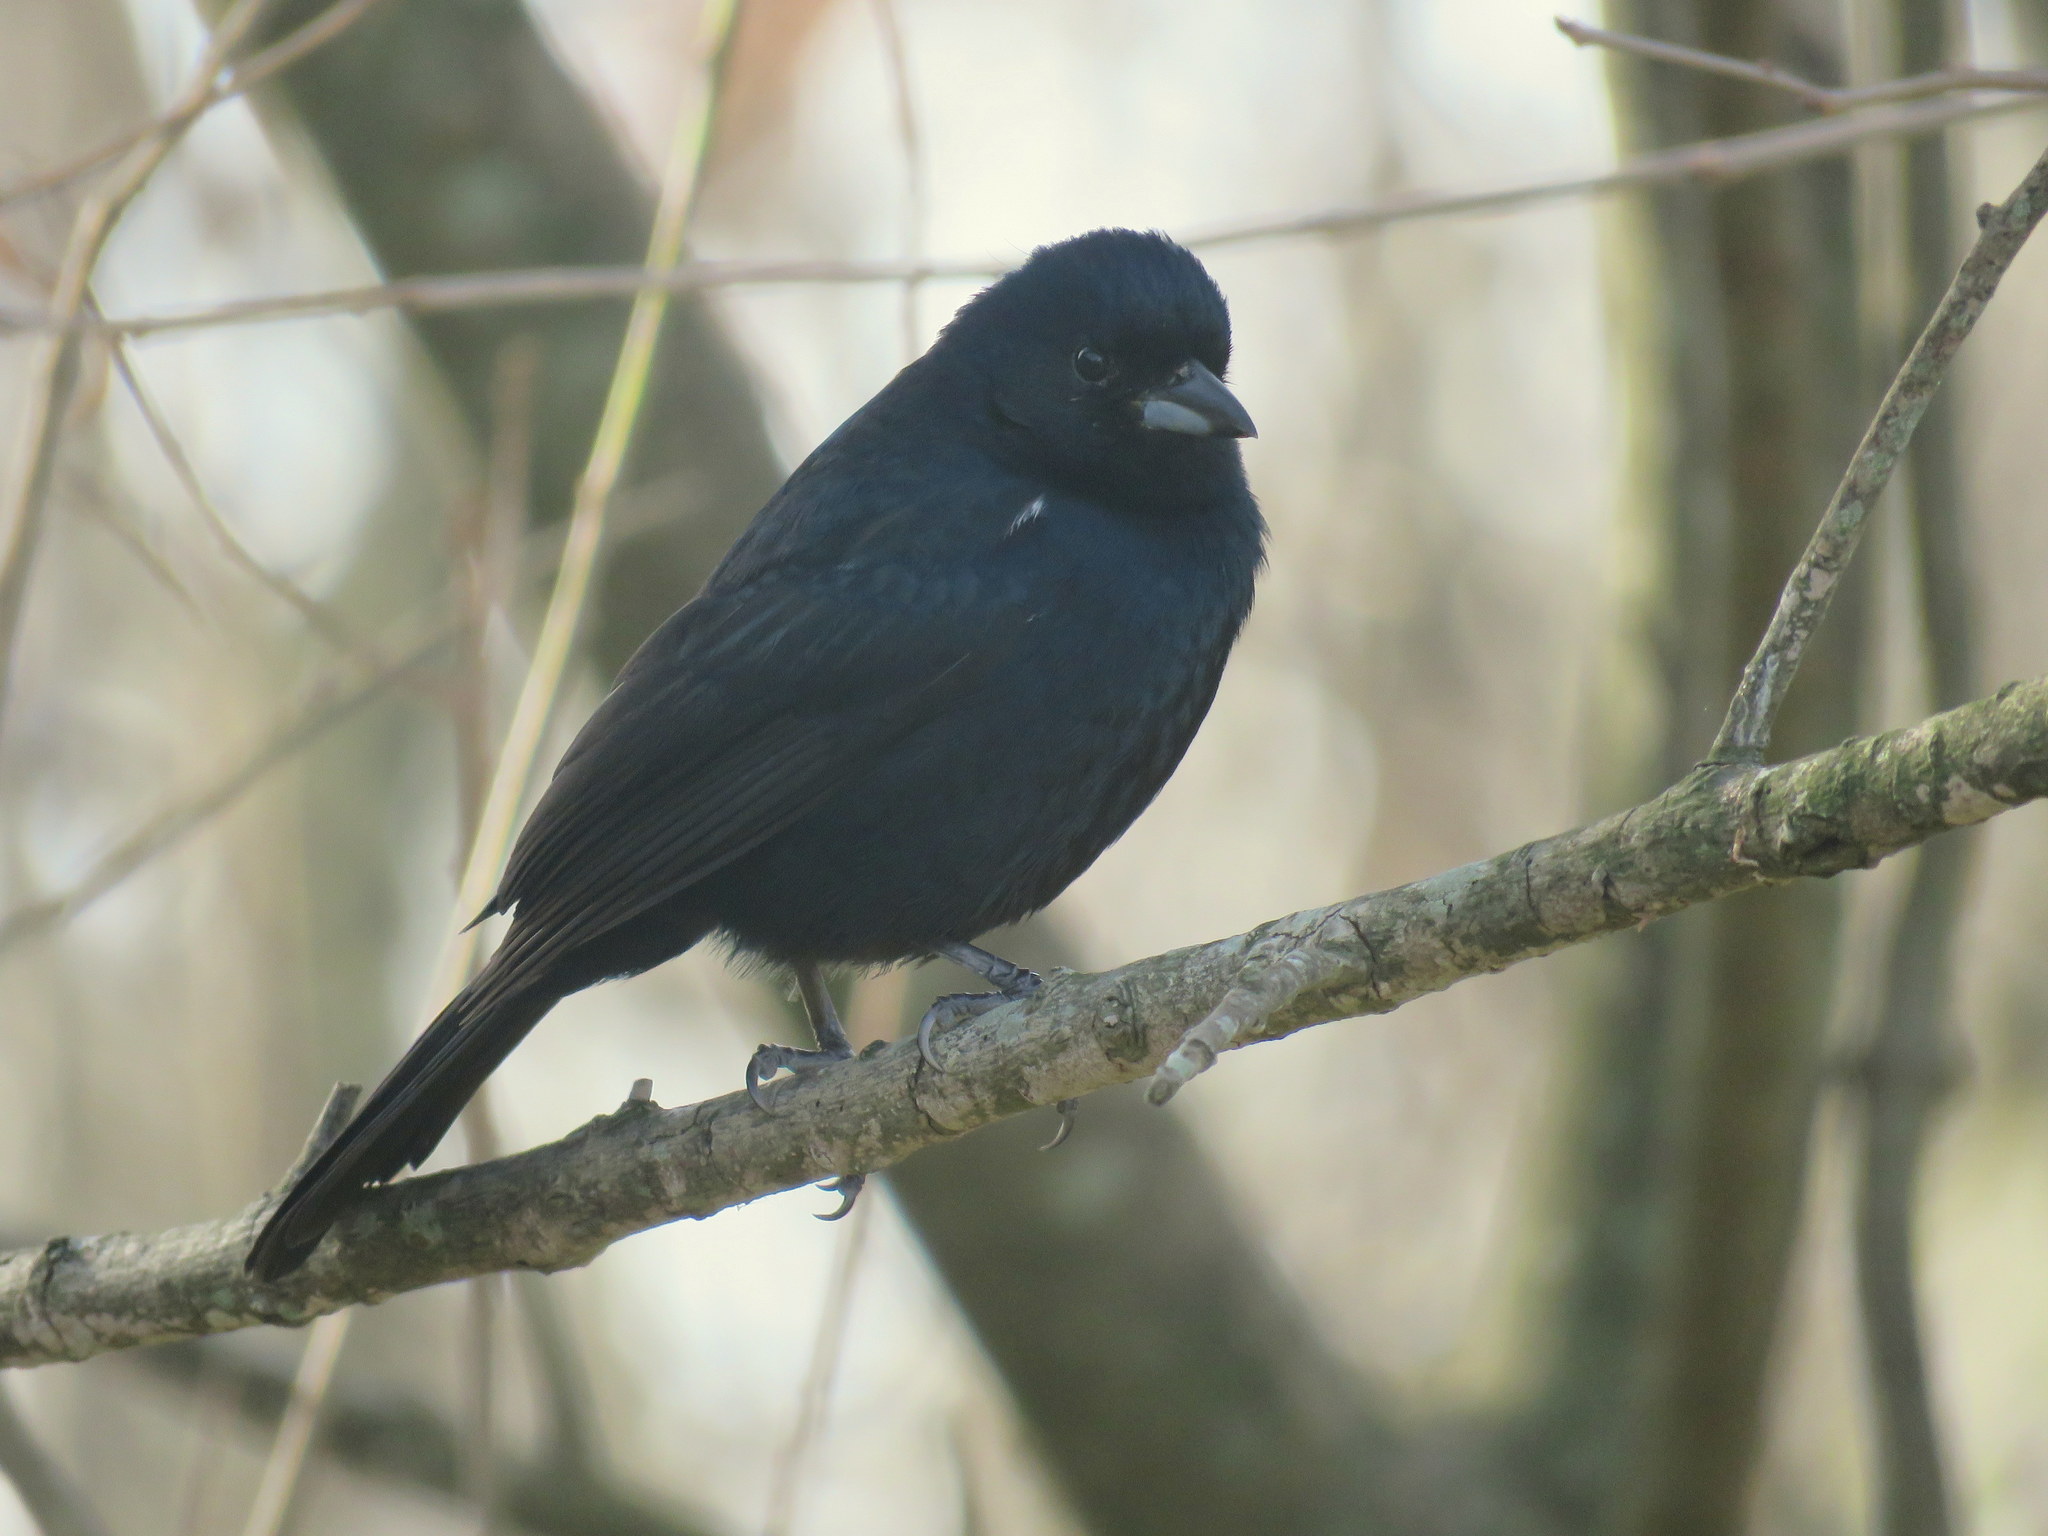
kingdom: Animalia
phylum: Chordata
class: Aves
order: Passeriformes
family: Thraupidae
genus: Tachyphonus
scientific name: Tachyphonus rufus
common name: White-lined tanager
